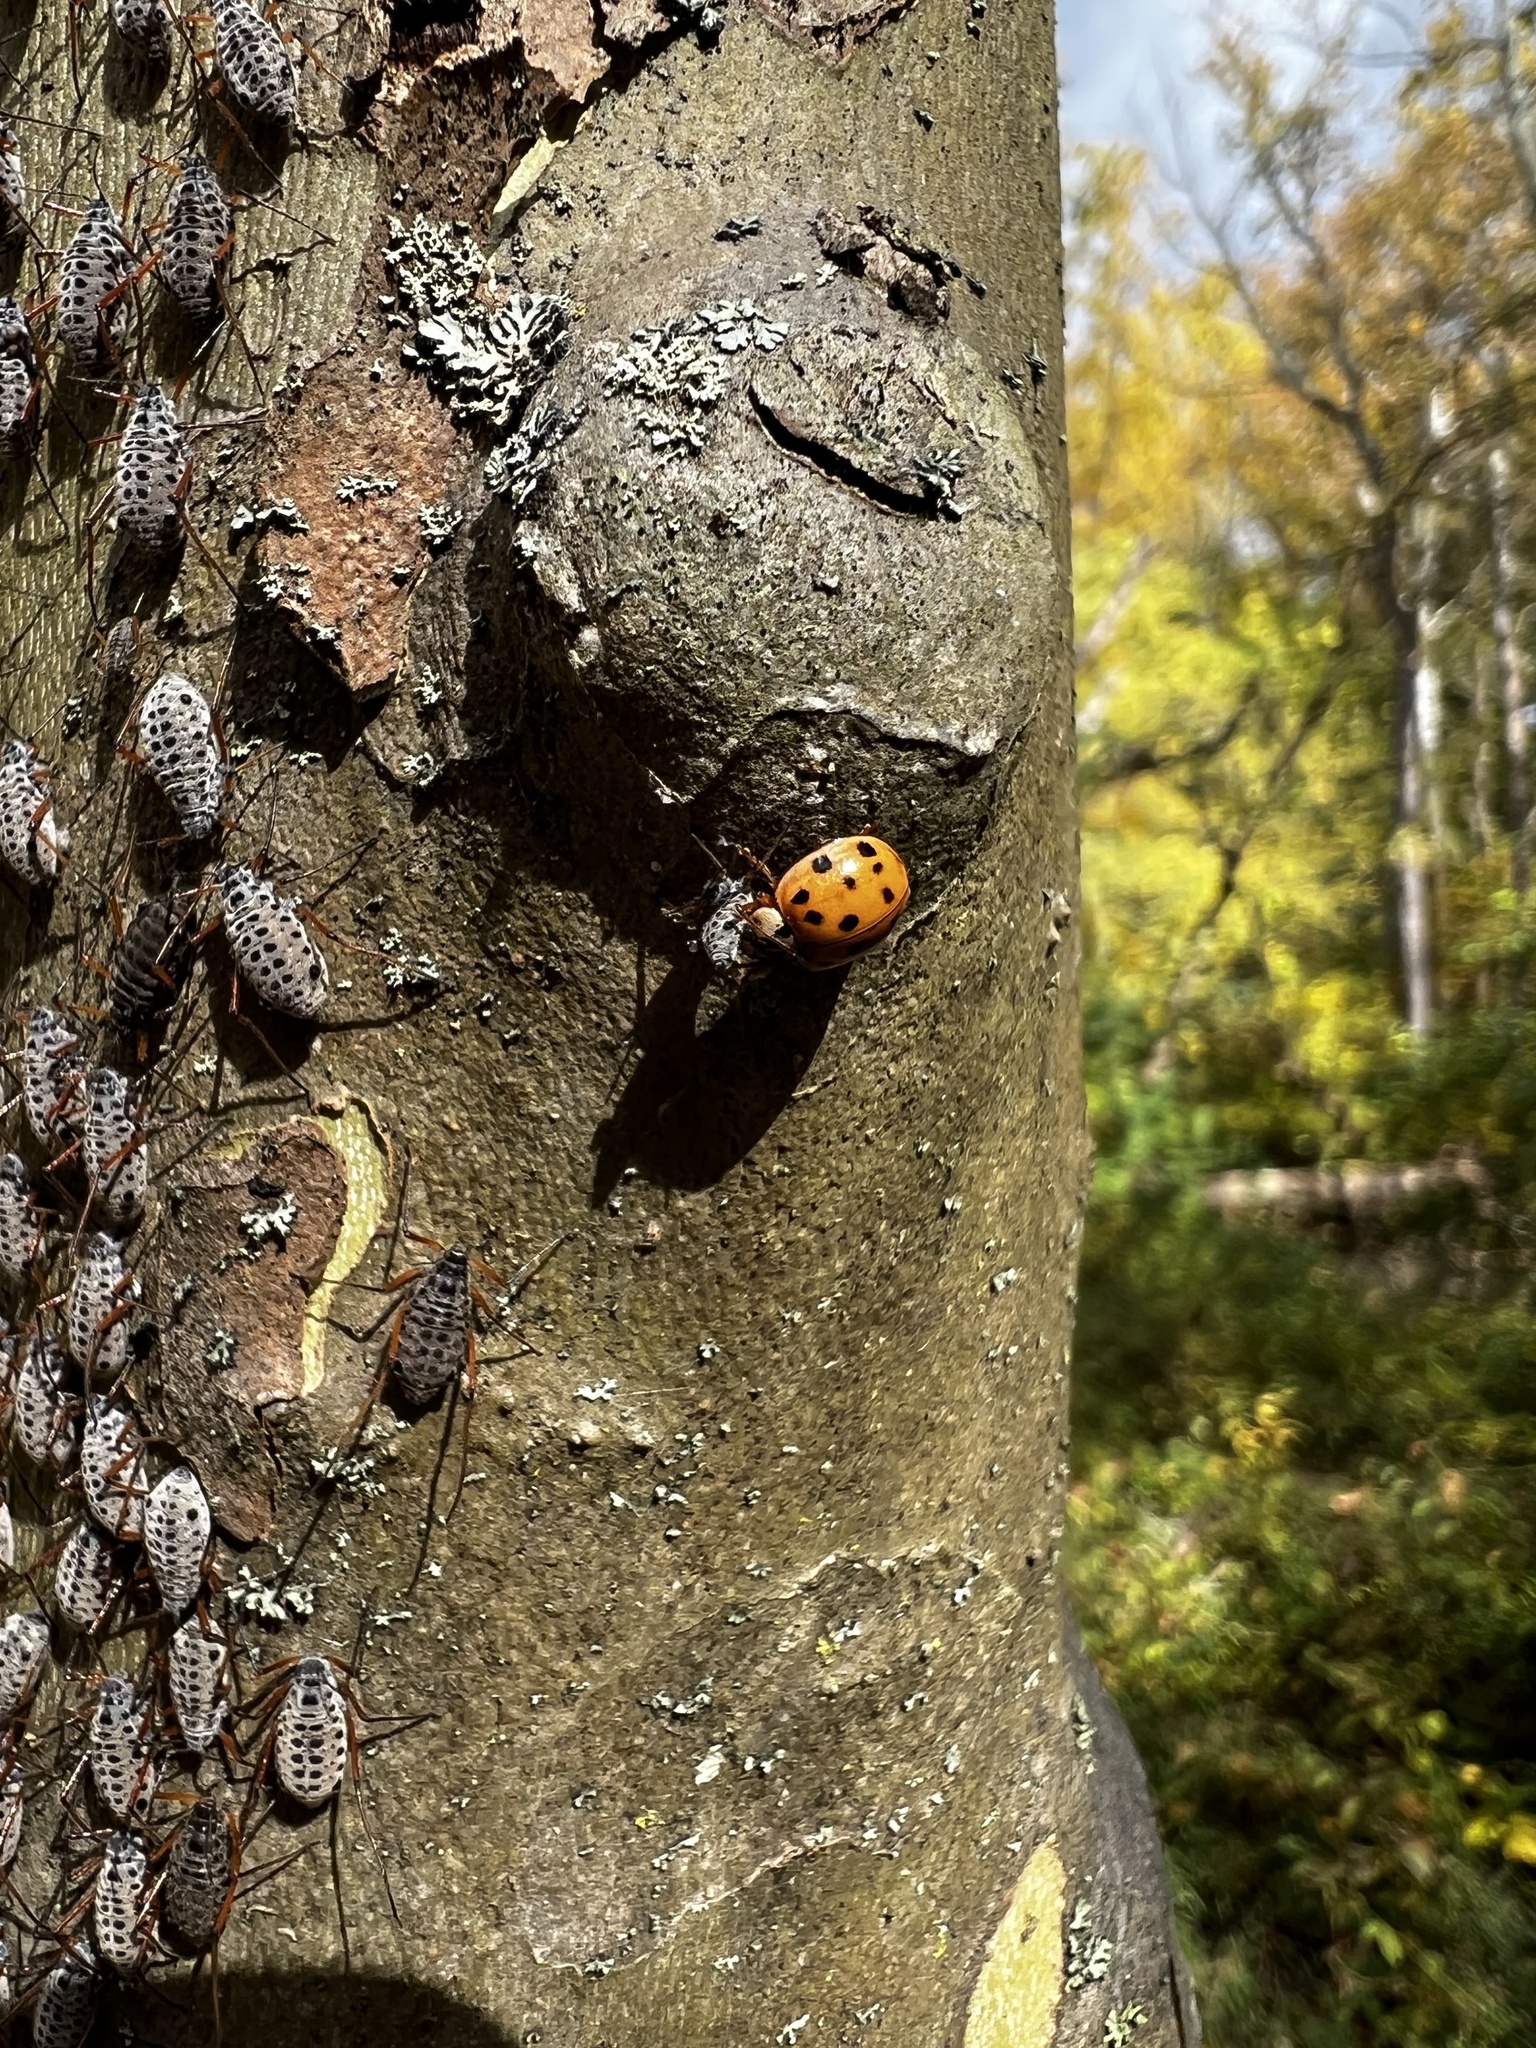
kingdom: Animalia
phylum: Arthropoda
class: Insecta
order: Coleoptera
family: Coccinellidae
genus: Harmonia
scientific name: Harmonia axyridis
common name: Harlequin ladybird
